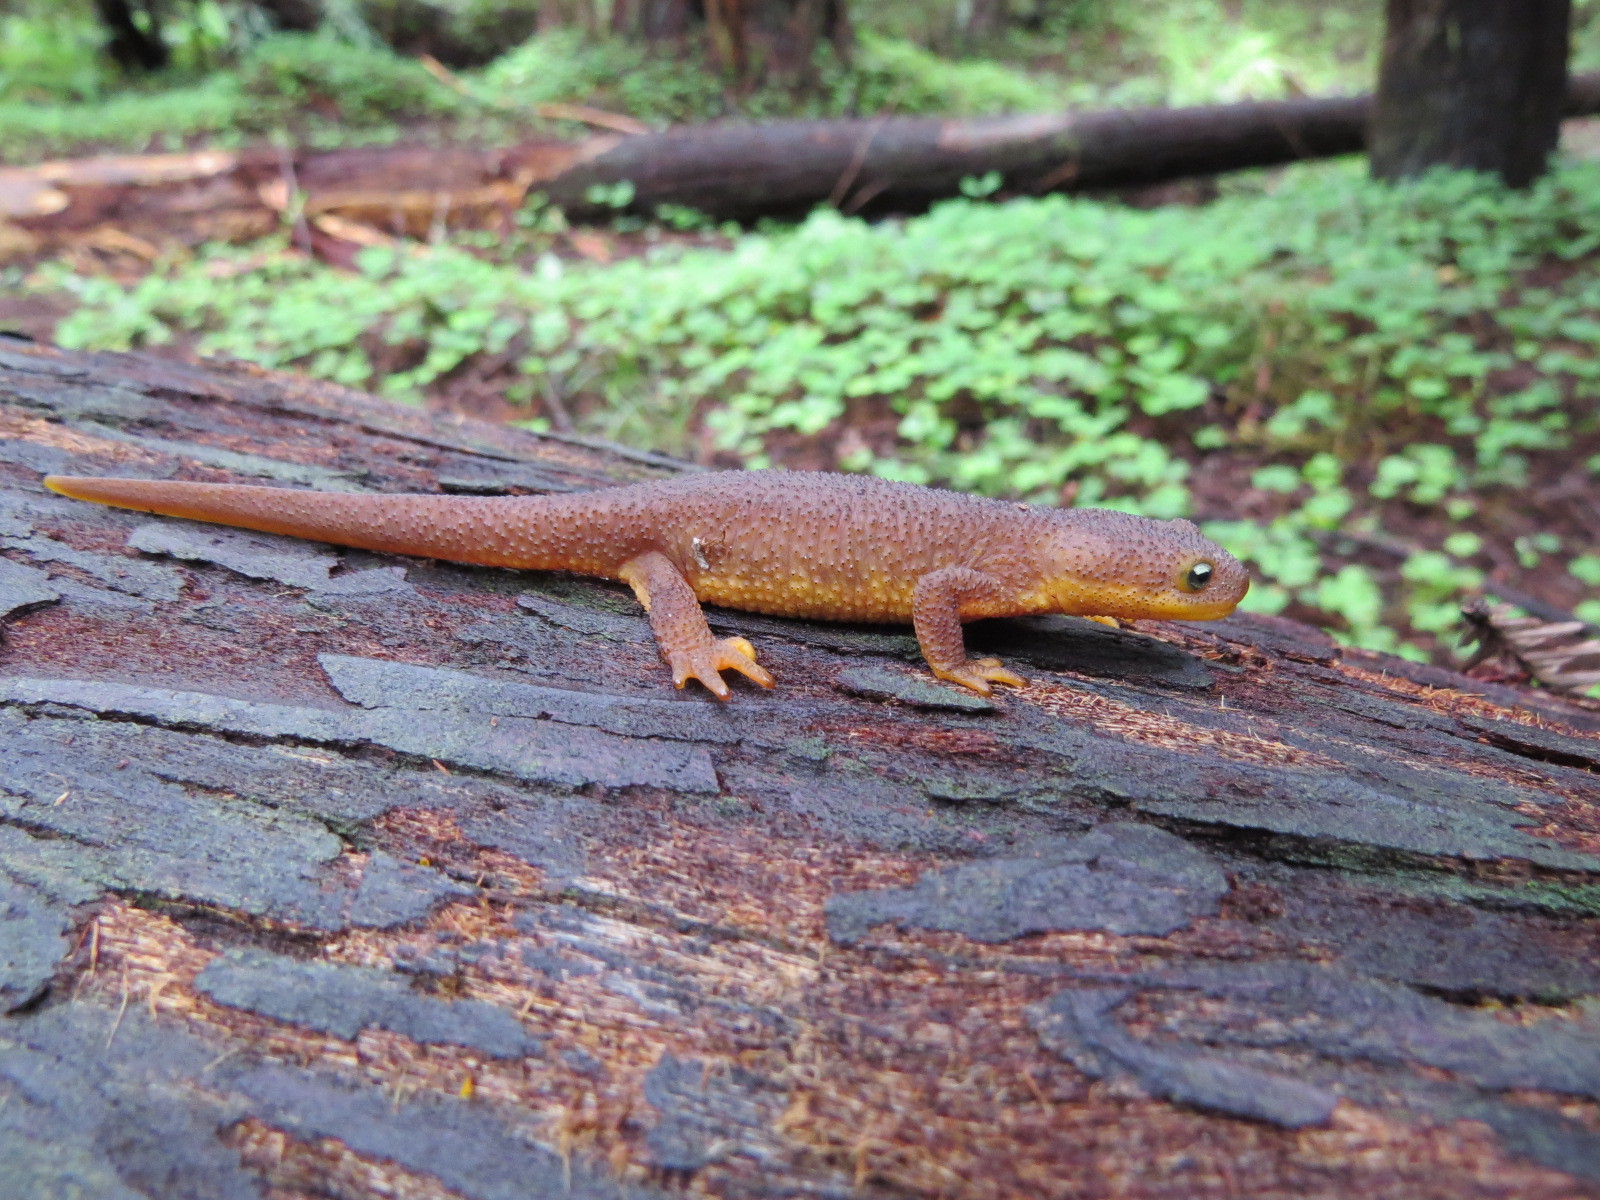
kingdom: Animalia
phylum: Chordata
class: Amphibia
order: Caudata
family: Salamandridae
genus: Taricha
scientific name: Taricha granulosa
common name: Roughskin newt
